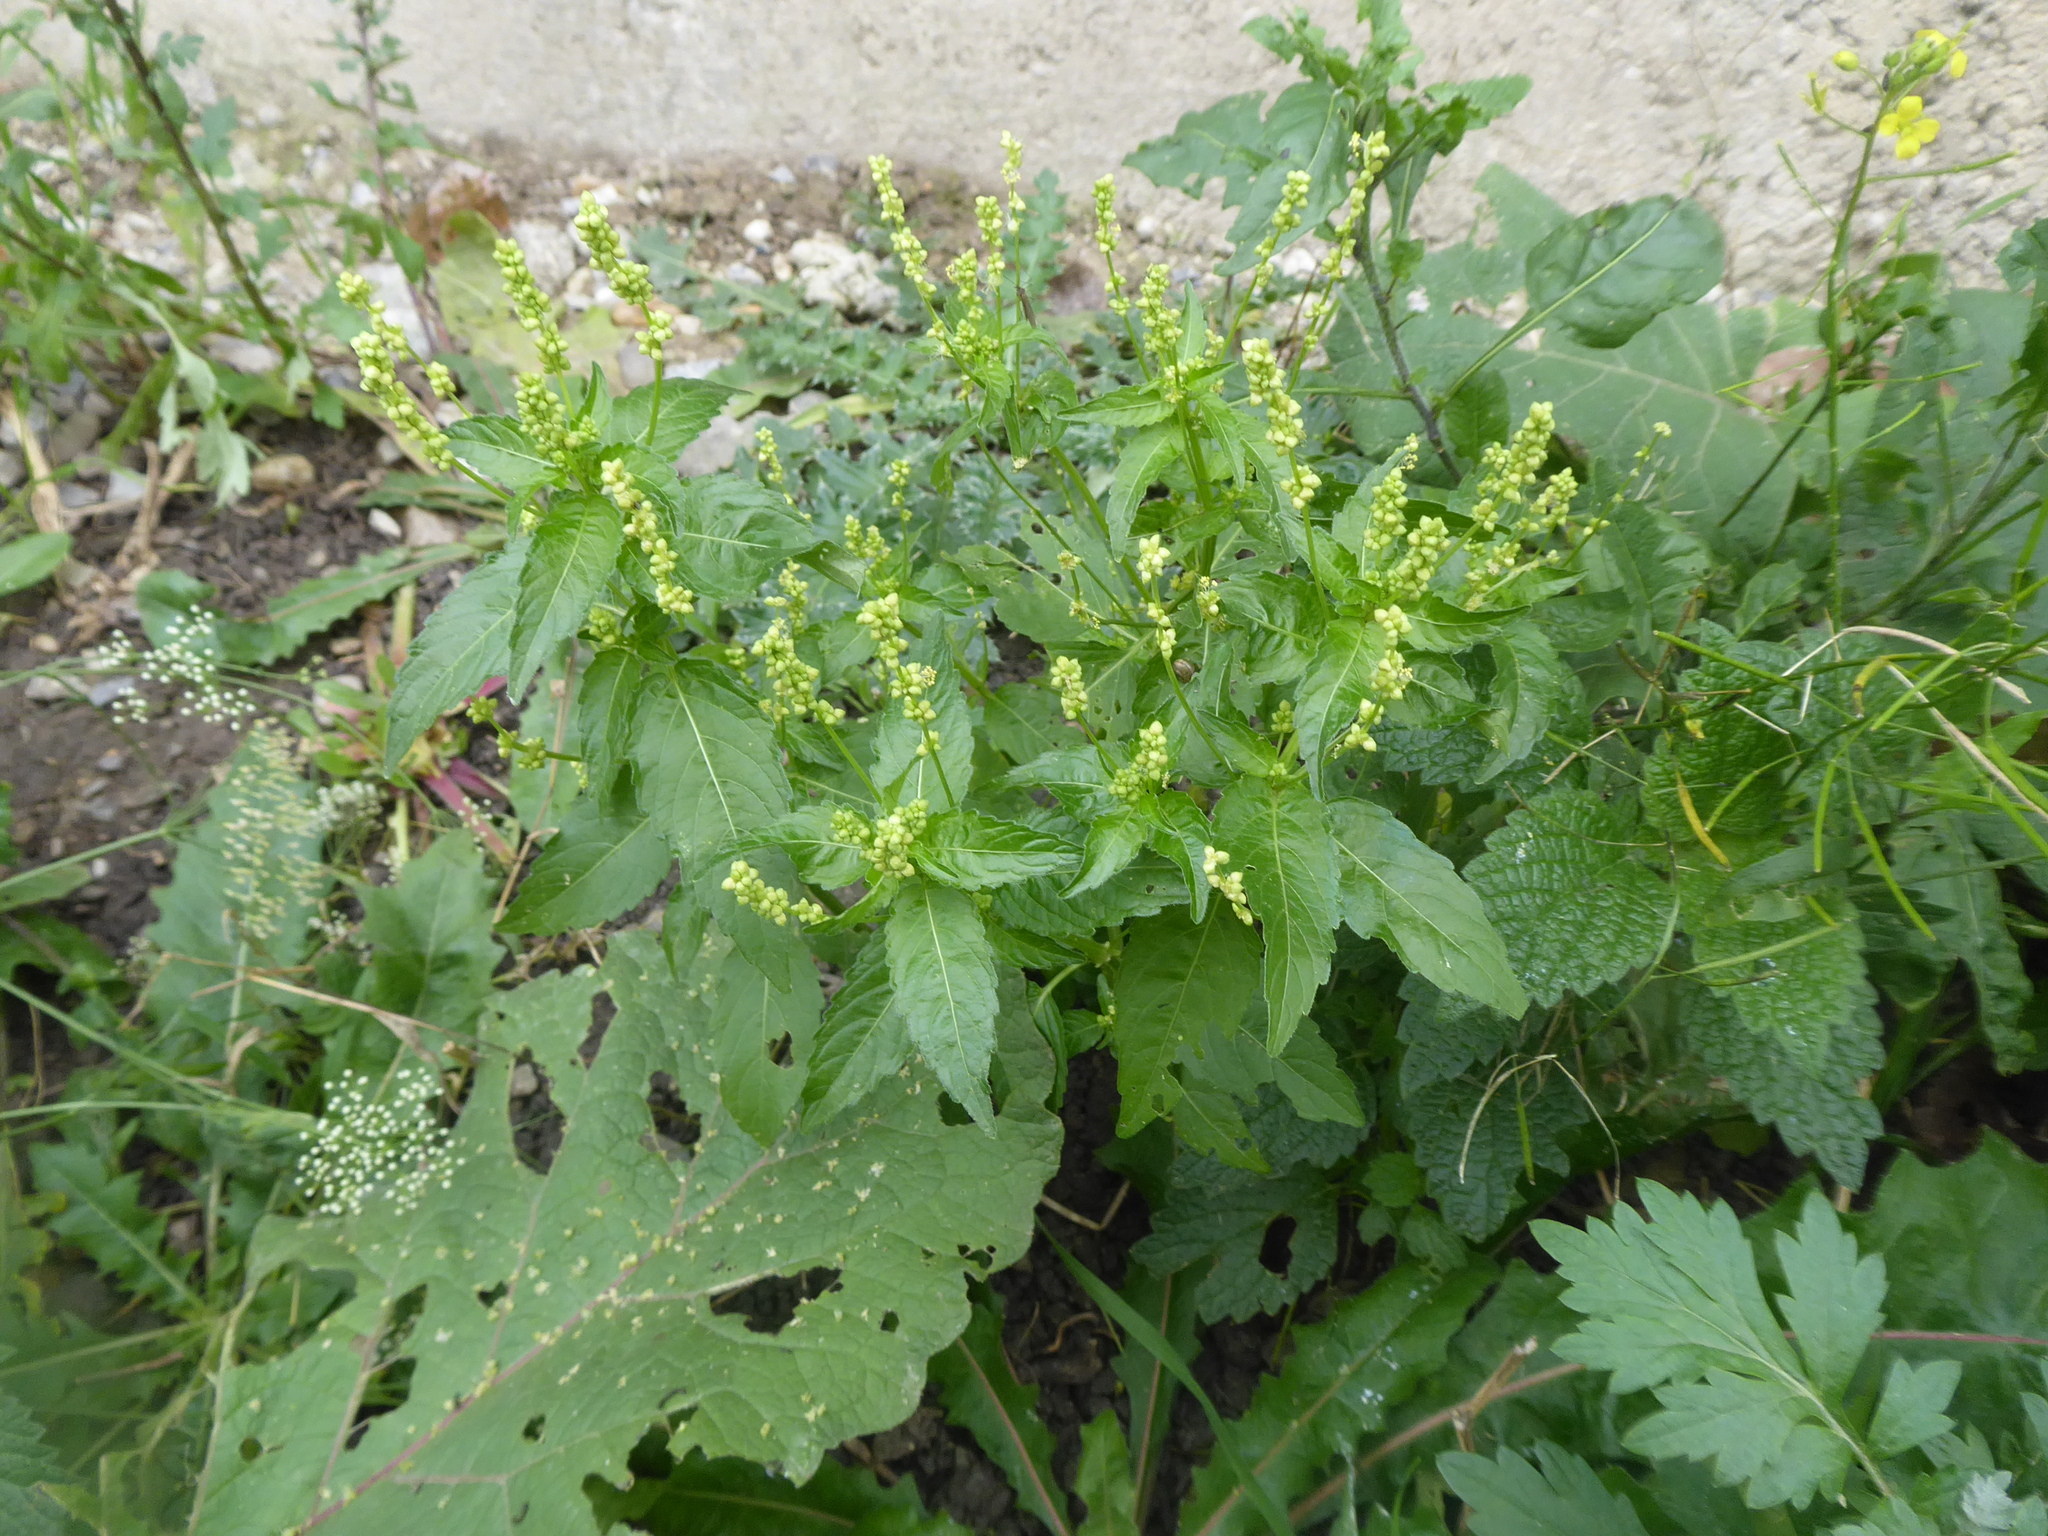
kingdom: Plantae
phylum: Tracheophyta
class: Magnoliopsida
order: Malpighiales
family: Euphorbiaceae
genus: Mercurialis
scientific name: Mercurialis annua
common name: Annual mercury
